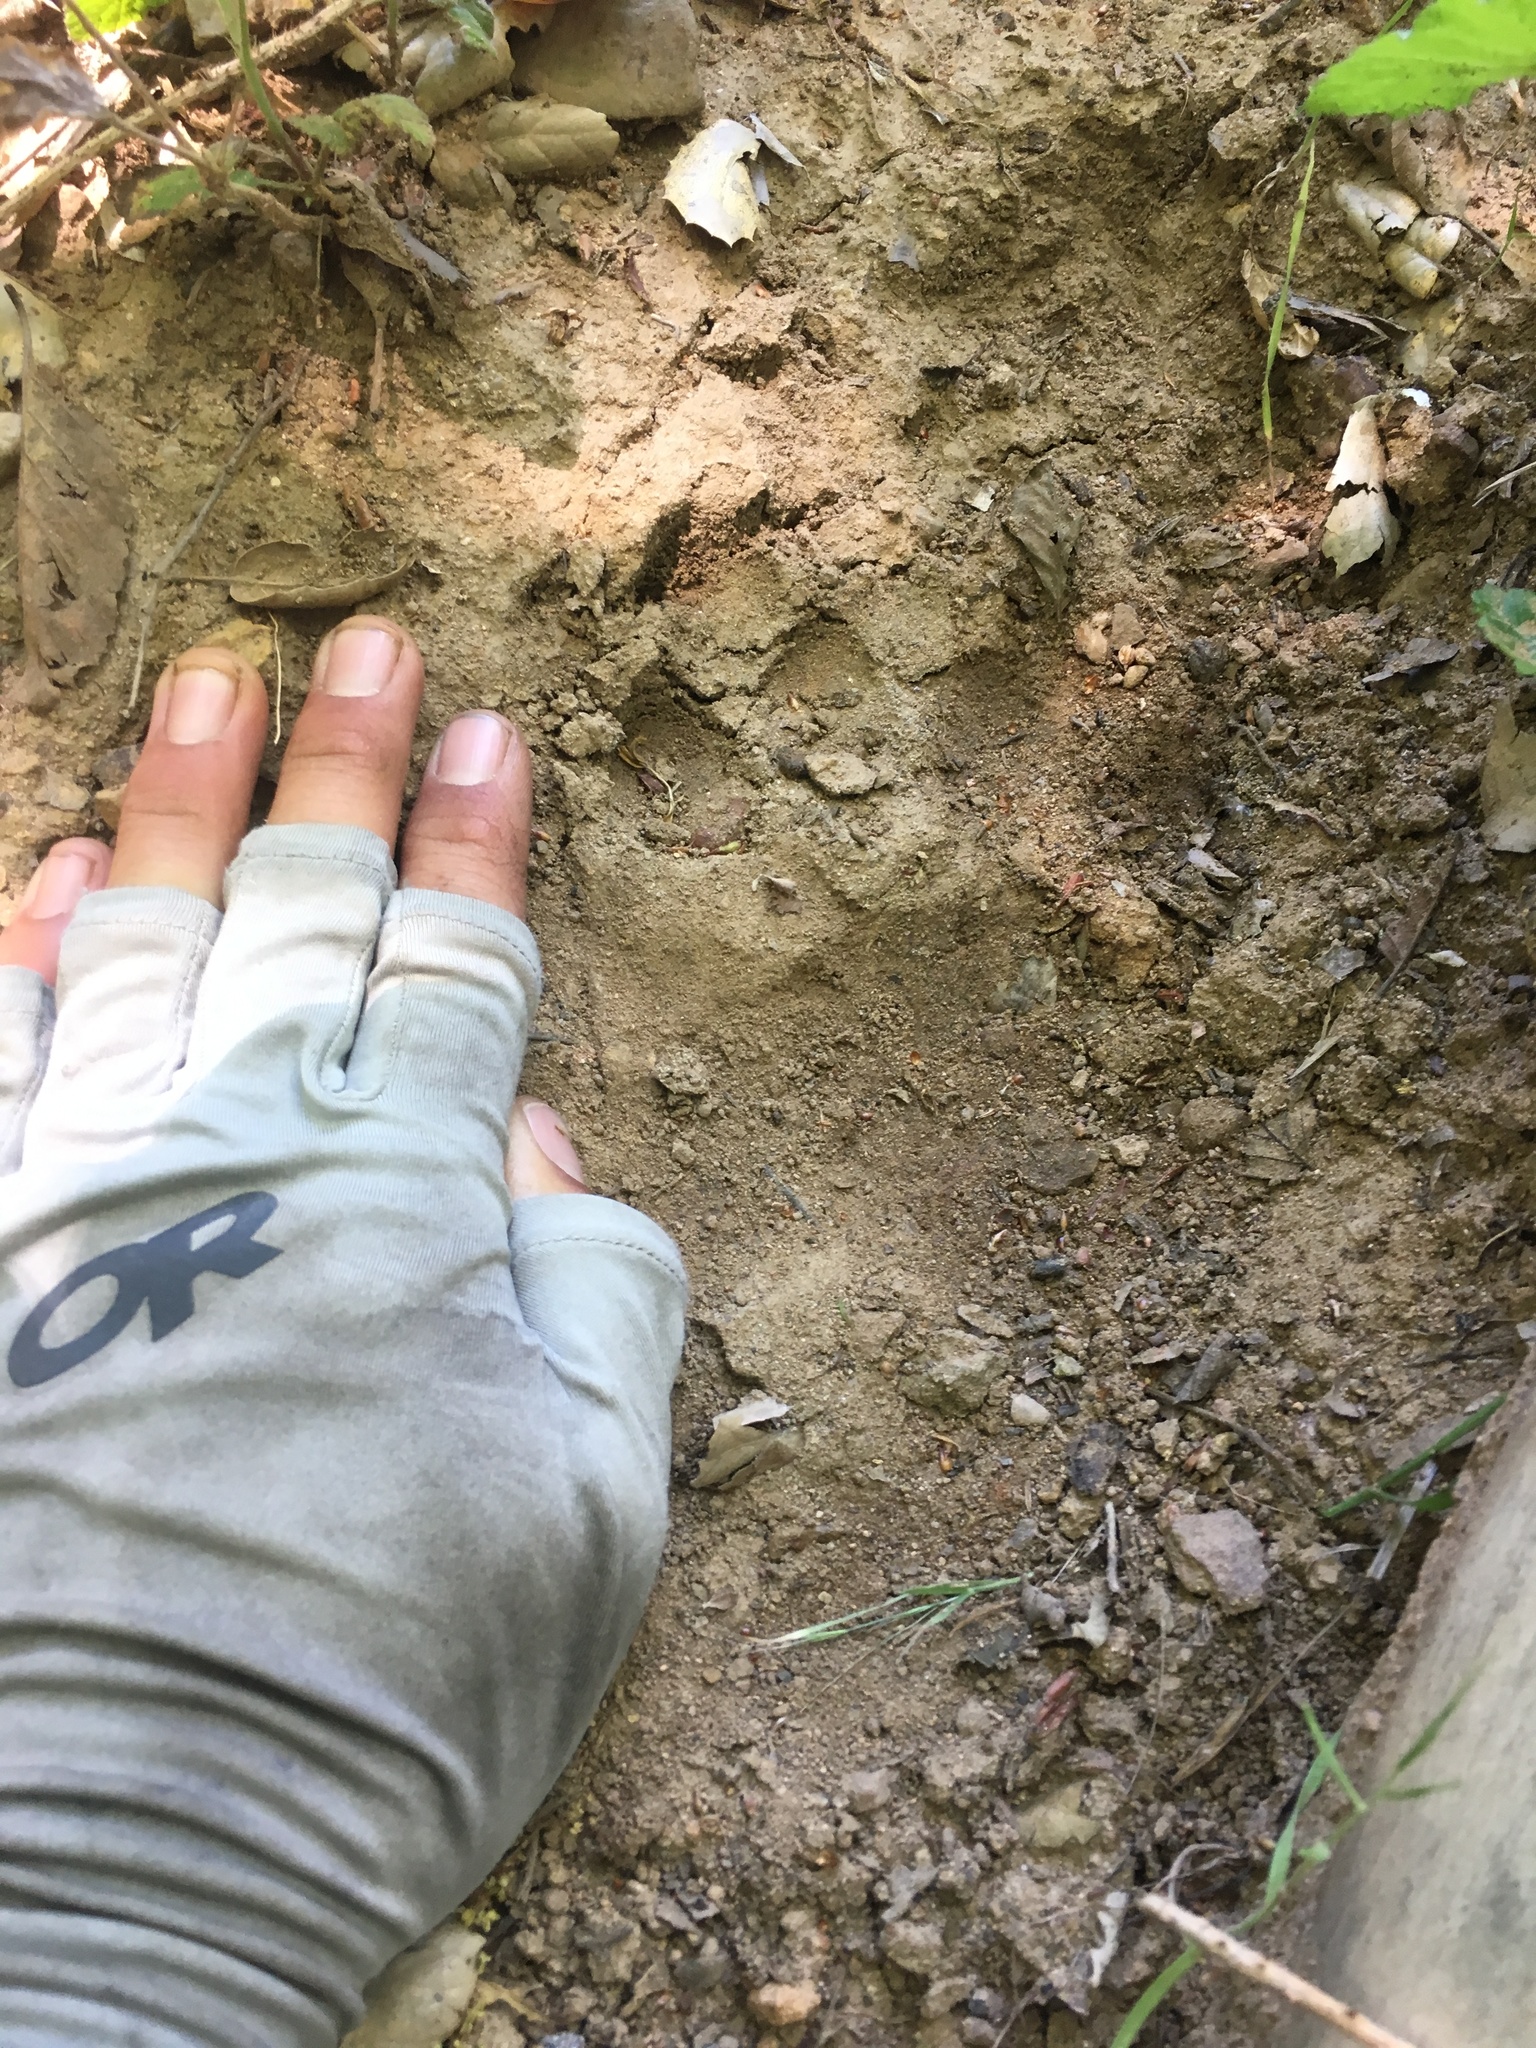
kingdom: Animalia
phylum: Chordata
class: Mammalia
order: Carnivora
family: Ursidae
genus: Ursus
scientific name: Ursus americanus
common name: American black bear
